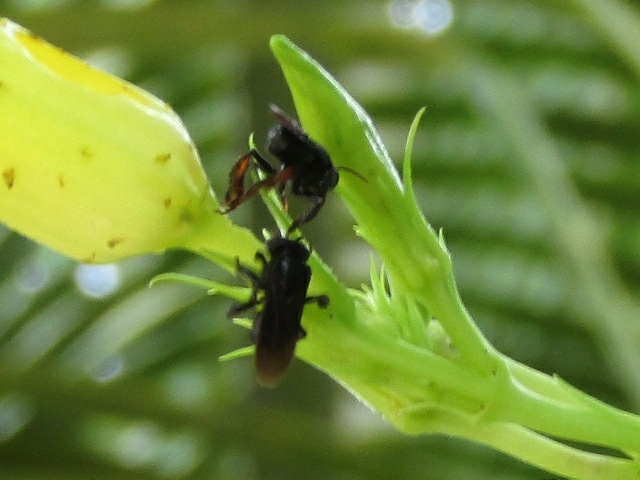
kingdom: Animalia
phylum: Arthropoda
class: Insecta
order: Hymenoptera
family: Apidae
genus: Trigona
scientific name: Trigona spinipes
